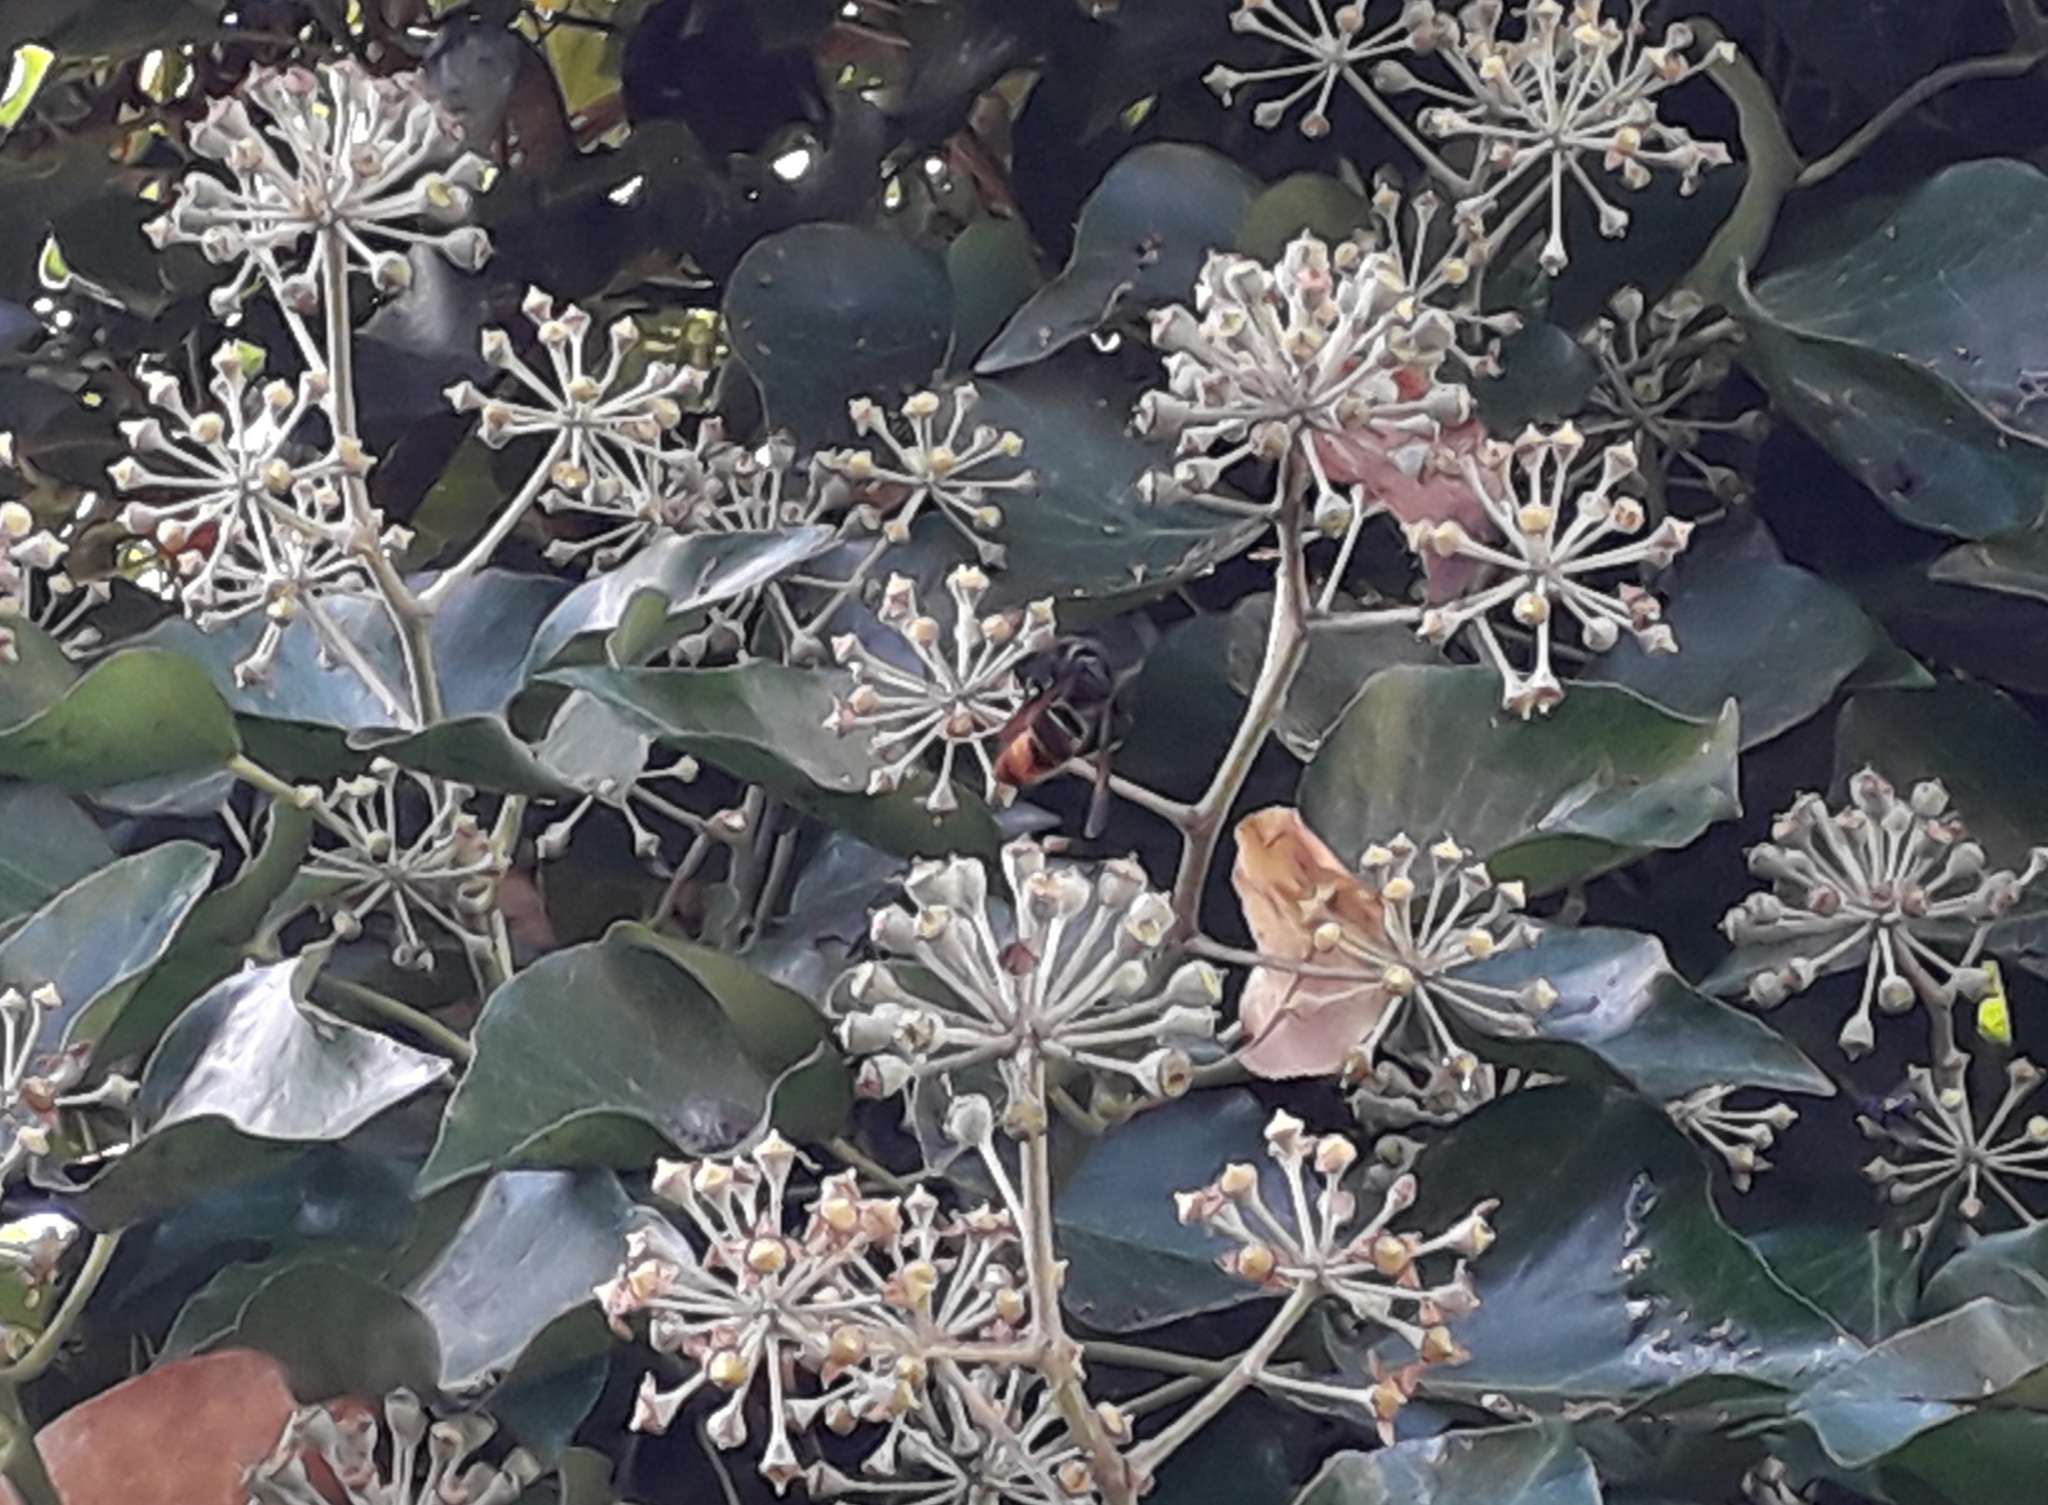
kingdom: Animalia
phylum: Arthropoda
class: Insecta
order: Hymenoptera
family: Vespidae
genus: Vespa
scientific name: Vespa velutina
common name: Asian hornet
